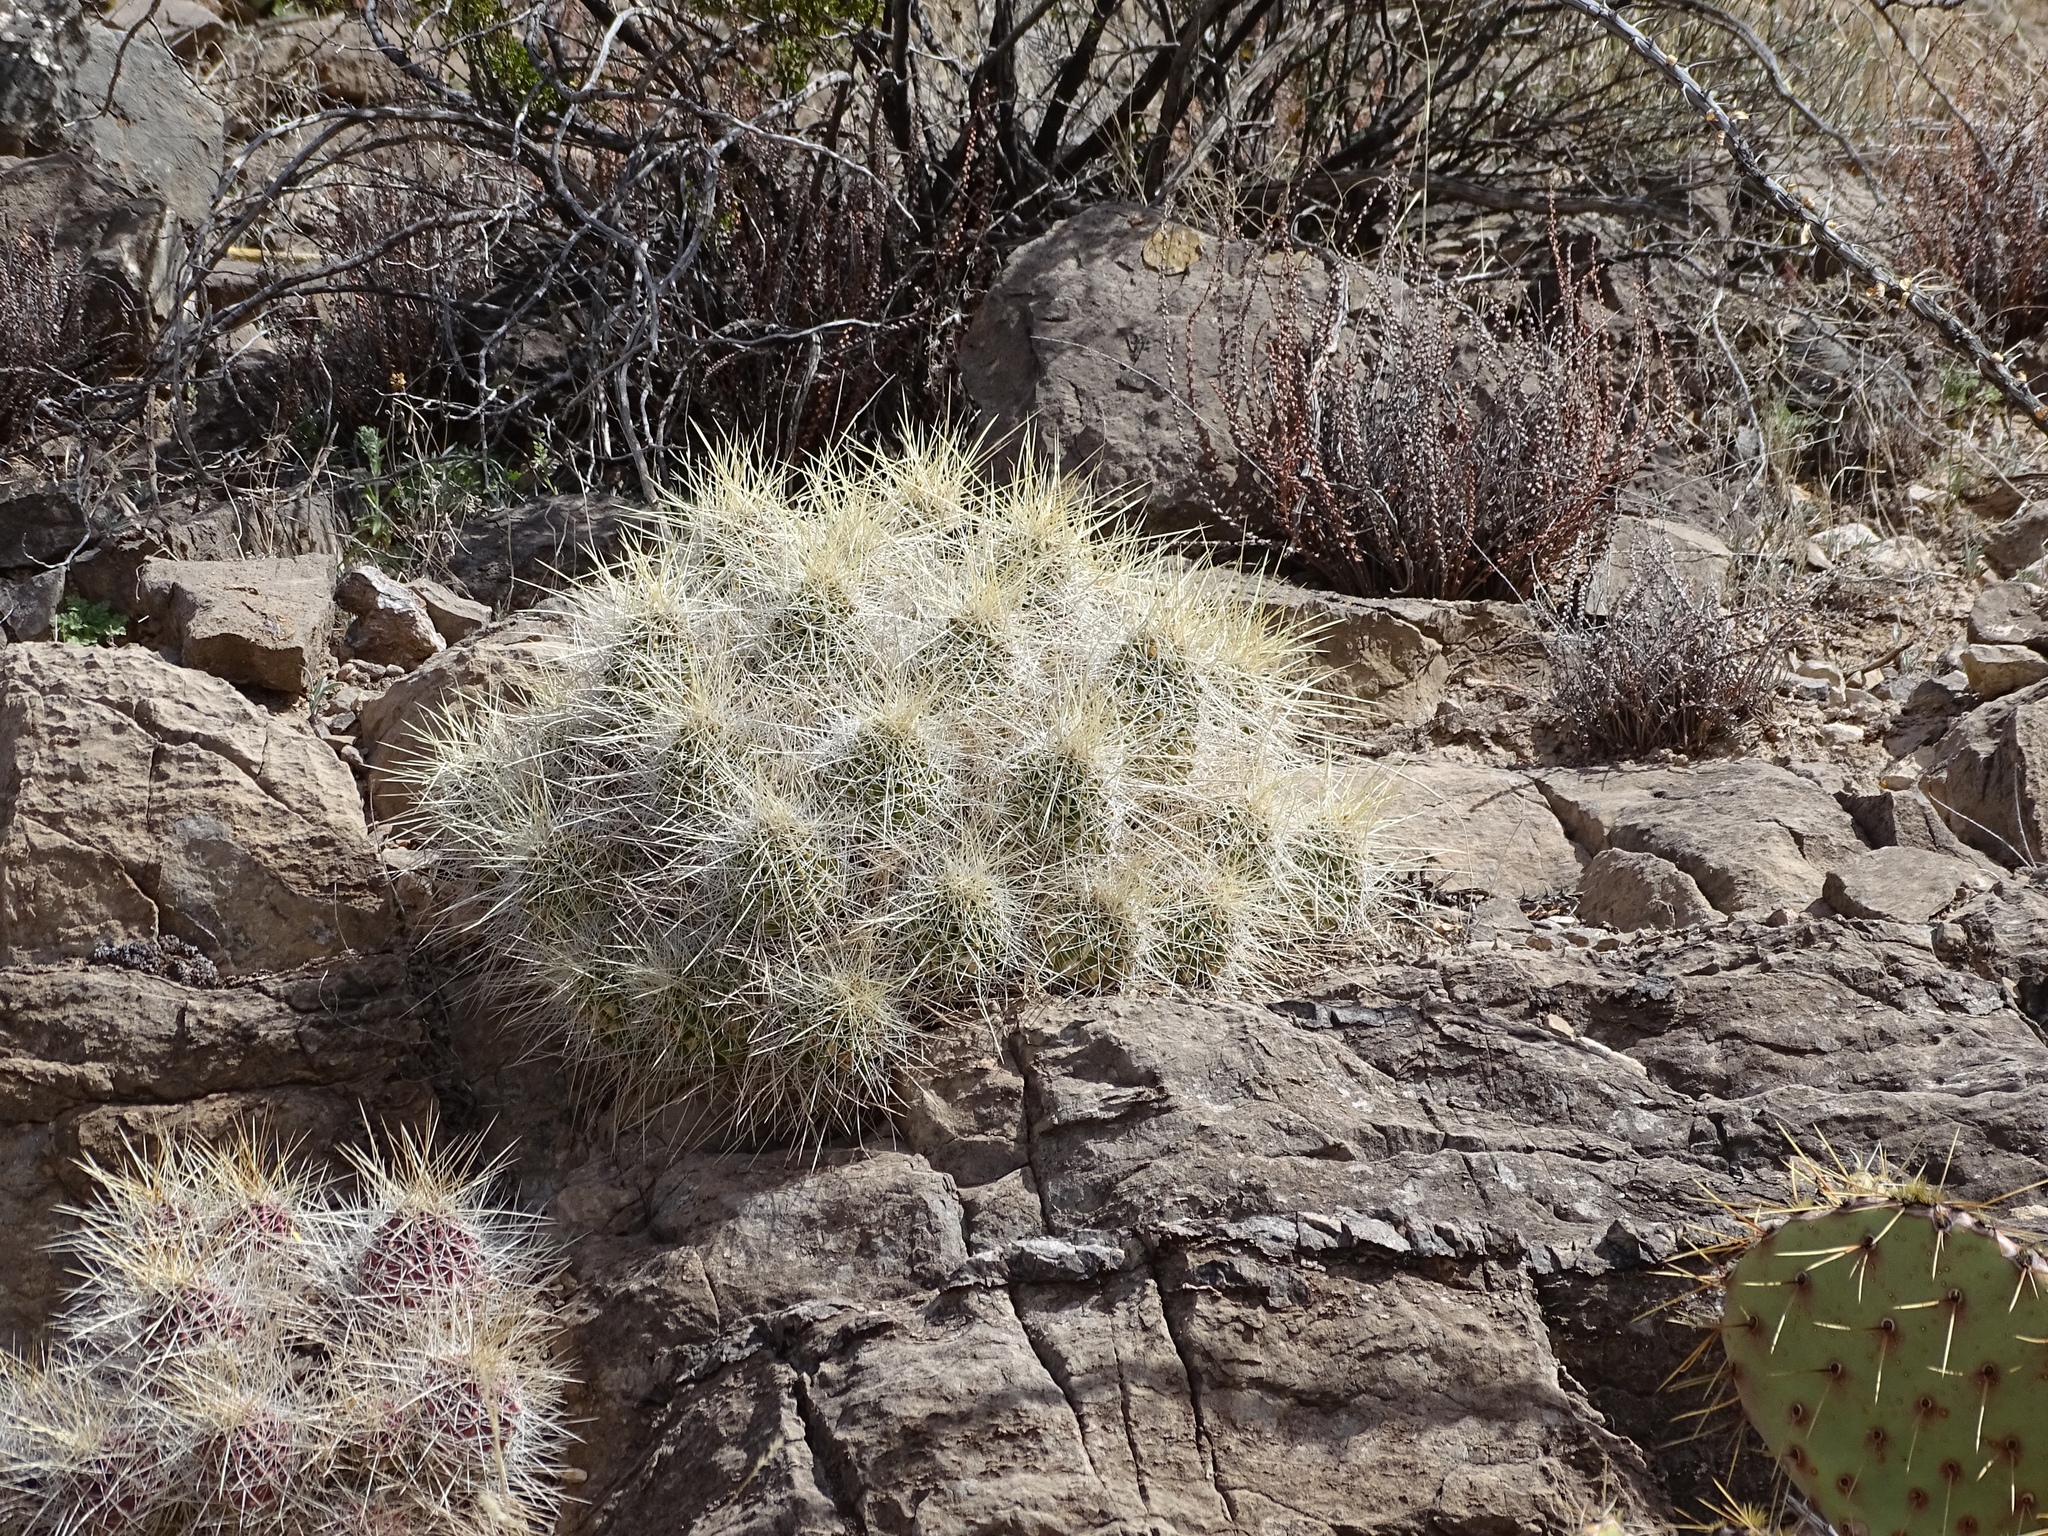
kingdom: Plantae
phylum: Tracheophyta
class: Magnoliopsida
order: Caryophyllales
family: Cactaceae
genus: Echinocereus
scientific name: Echinocereus stramineus
